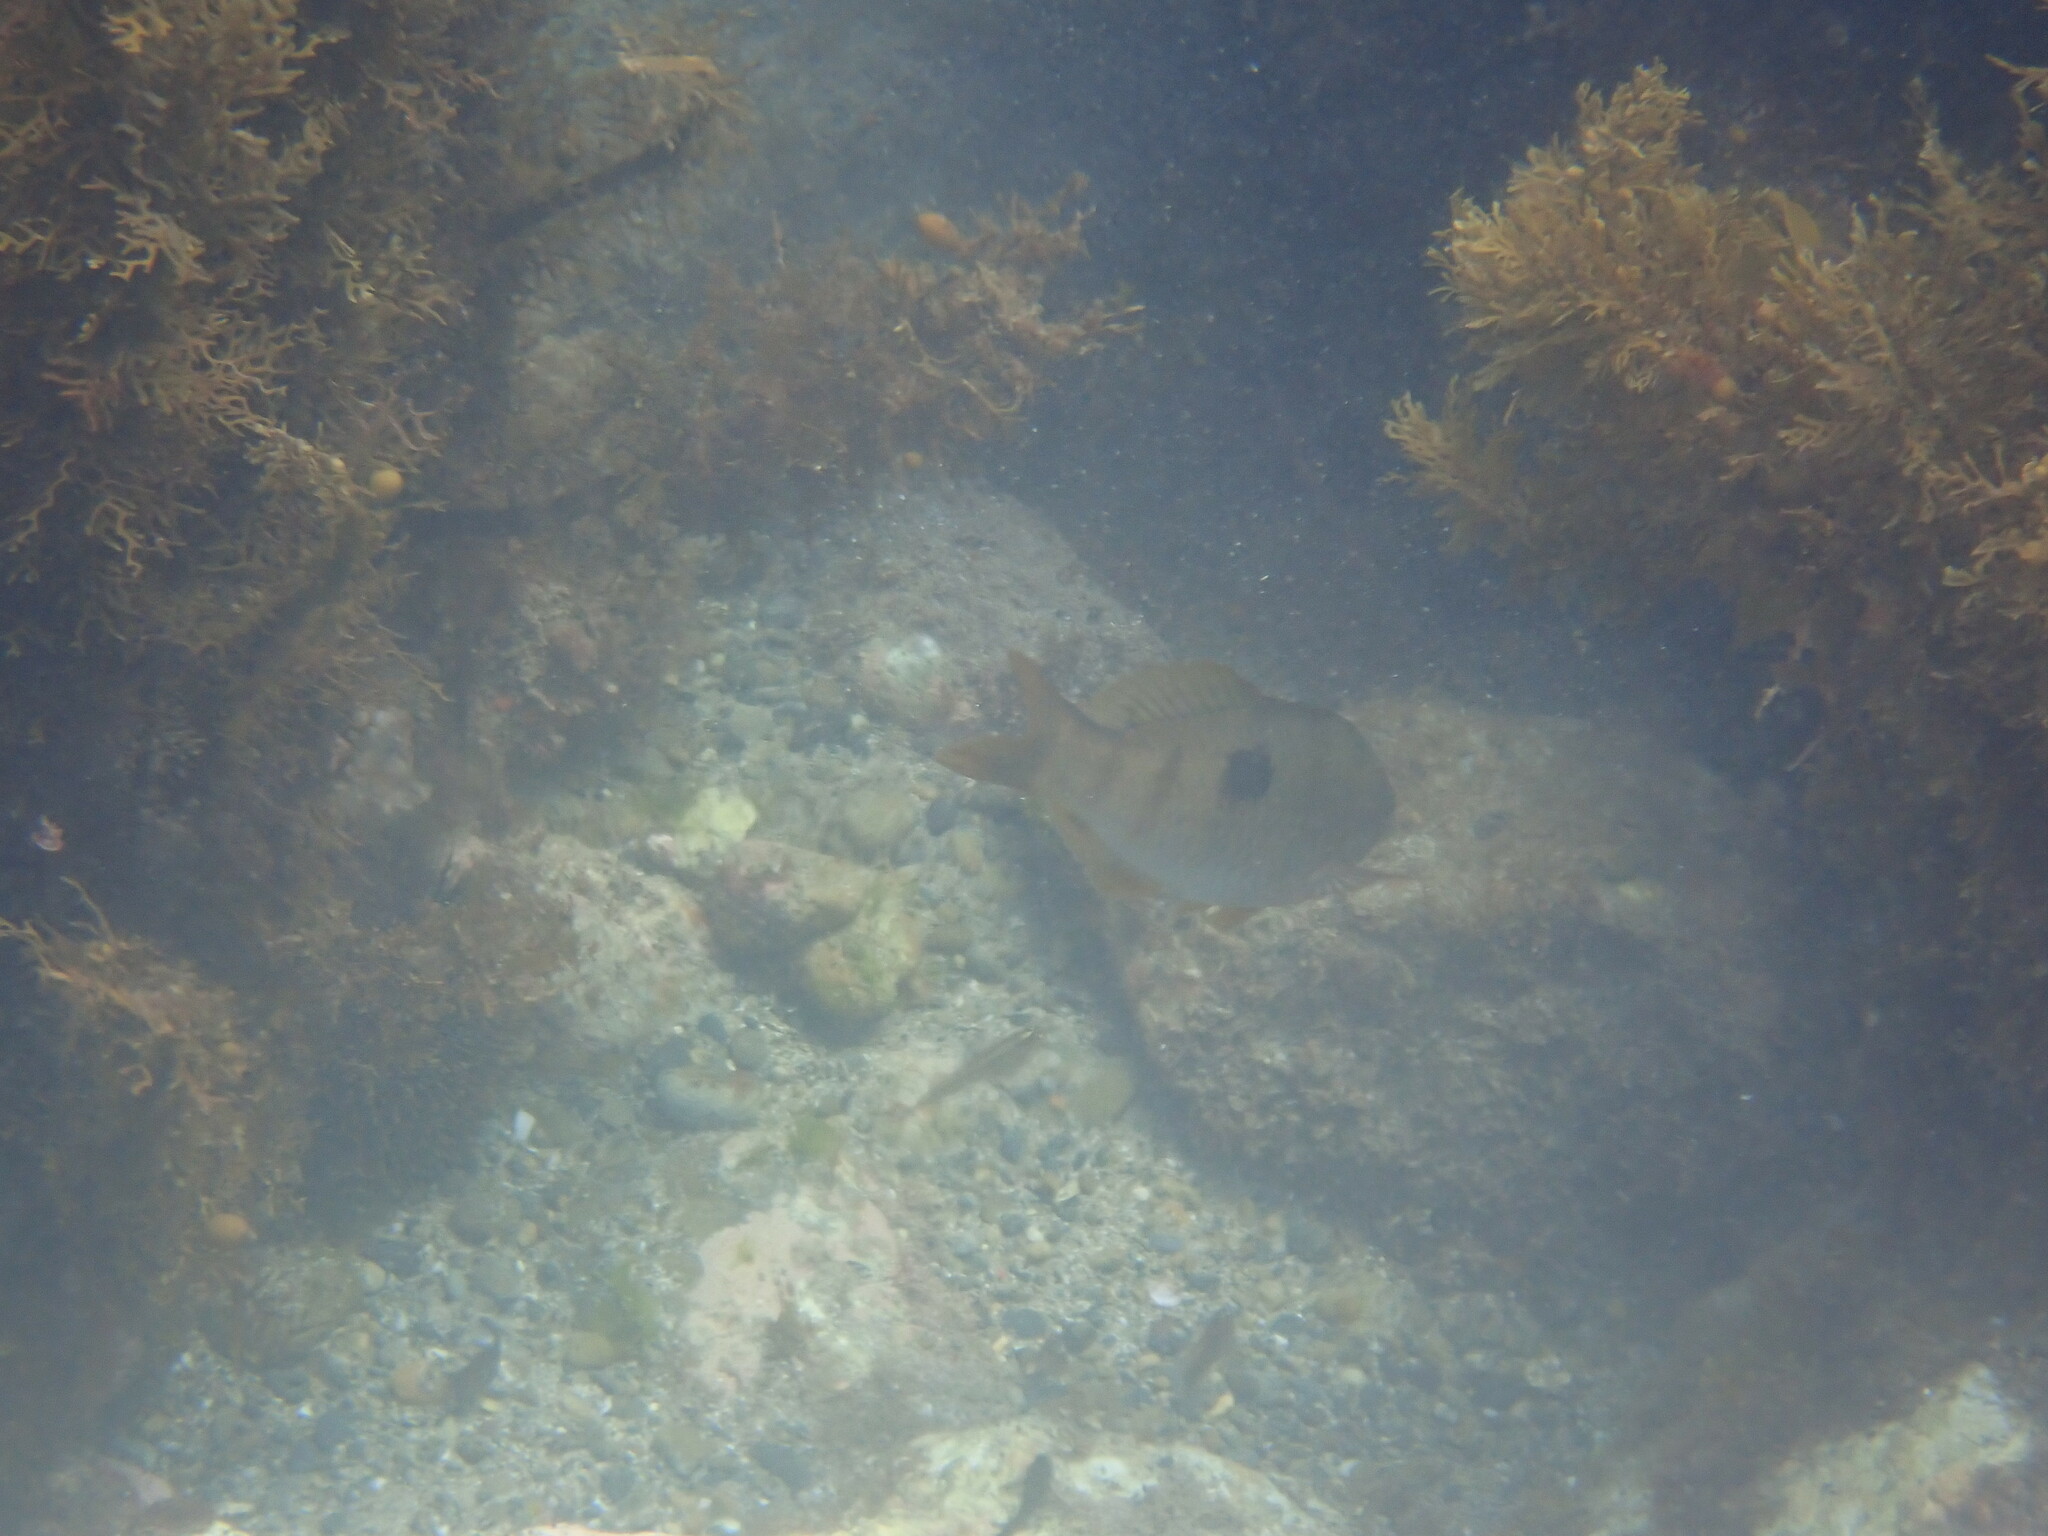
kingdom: Animalia
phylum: Chordata
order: Perciformes
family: Labridae
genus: Notolabrus
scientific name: Notolabrus celidotus
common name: Spotty
